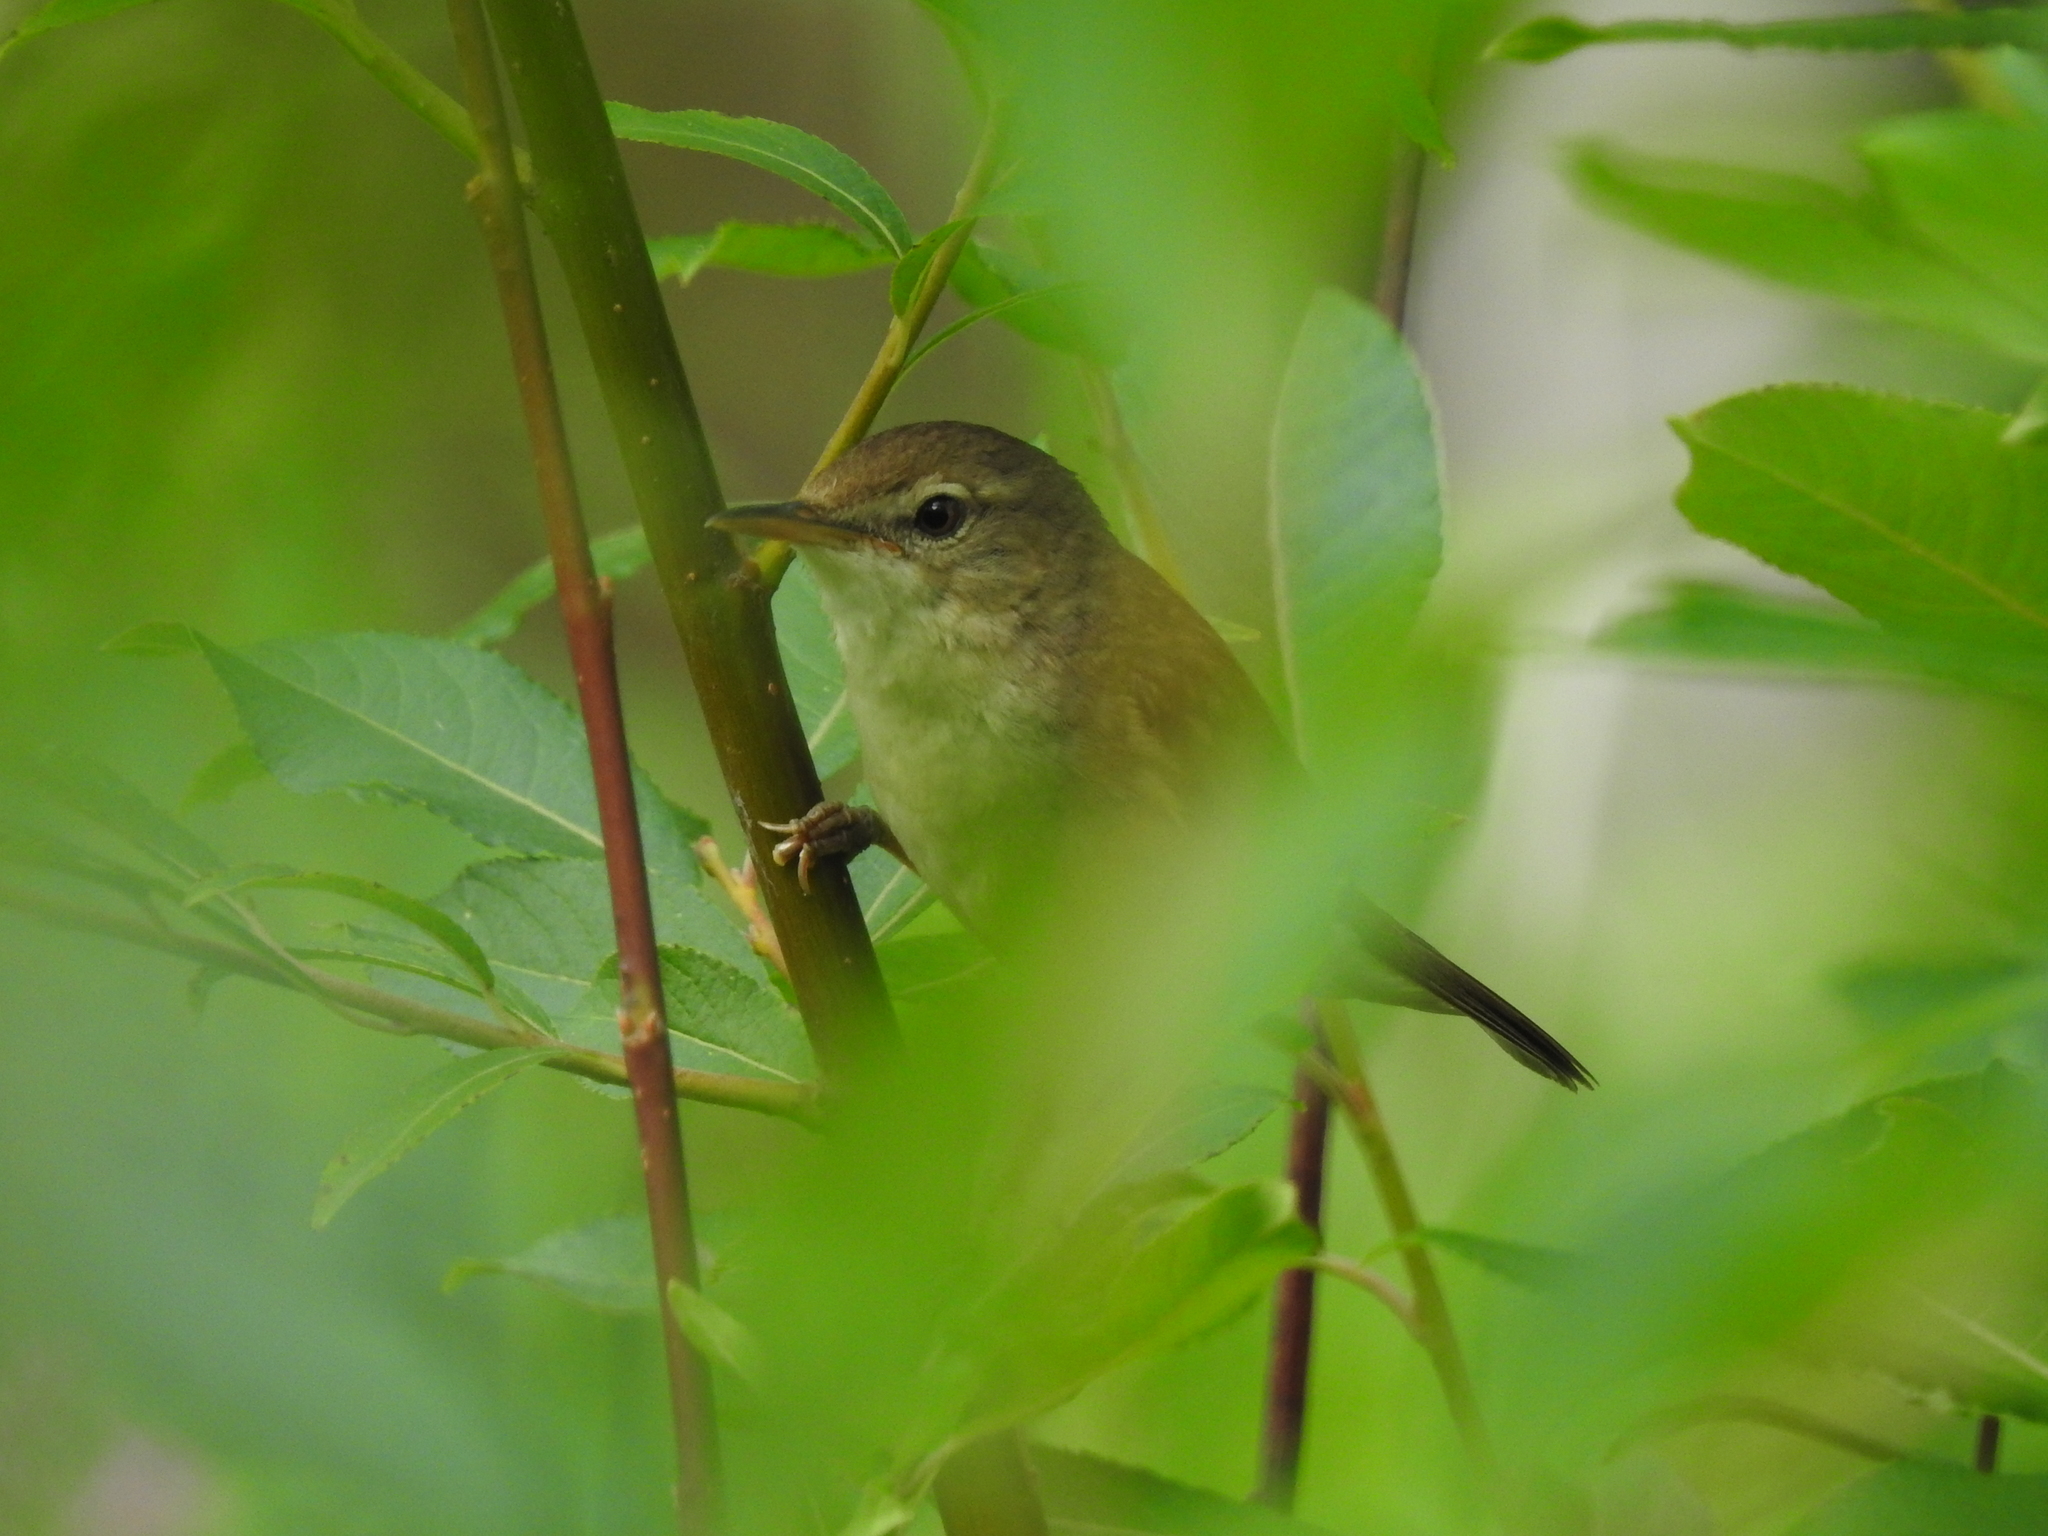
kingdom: Animalia
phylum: Chordata
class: Aves
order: Passeriformes
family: Acrocephalidae
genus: Acrocephalus
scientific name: Acrocephalus dumetorum
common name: Blyth's reed warbler
